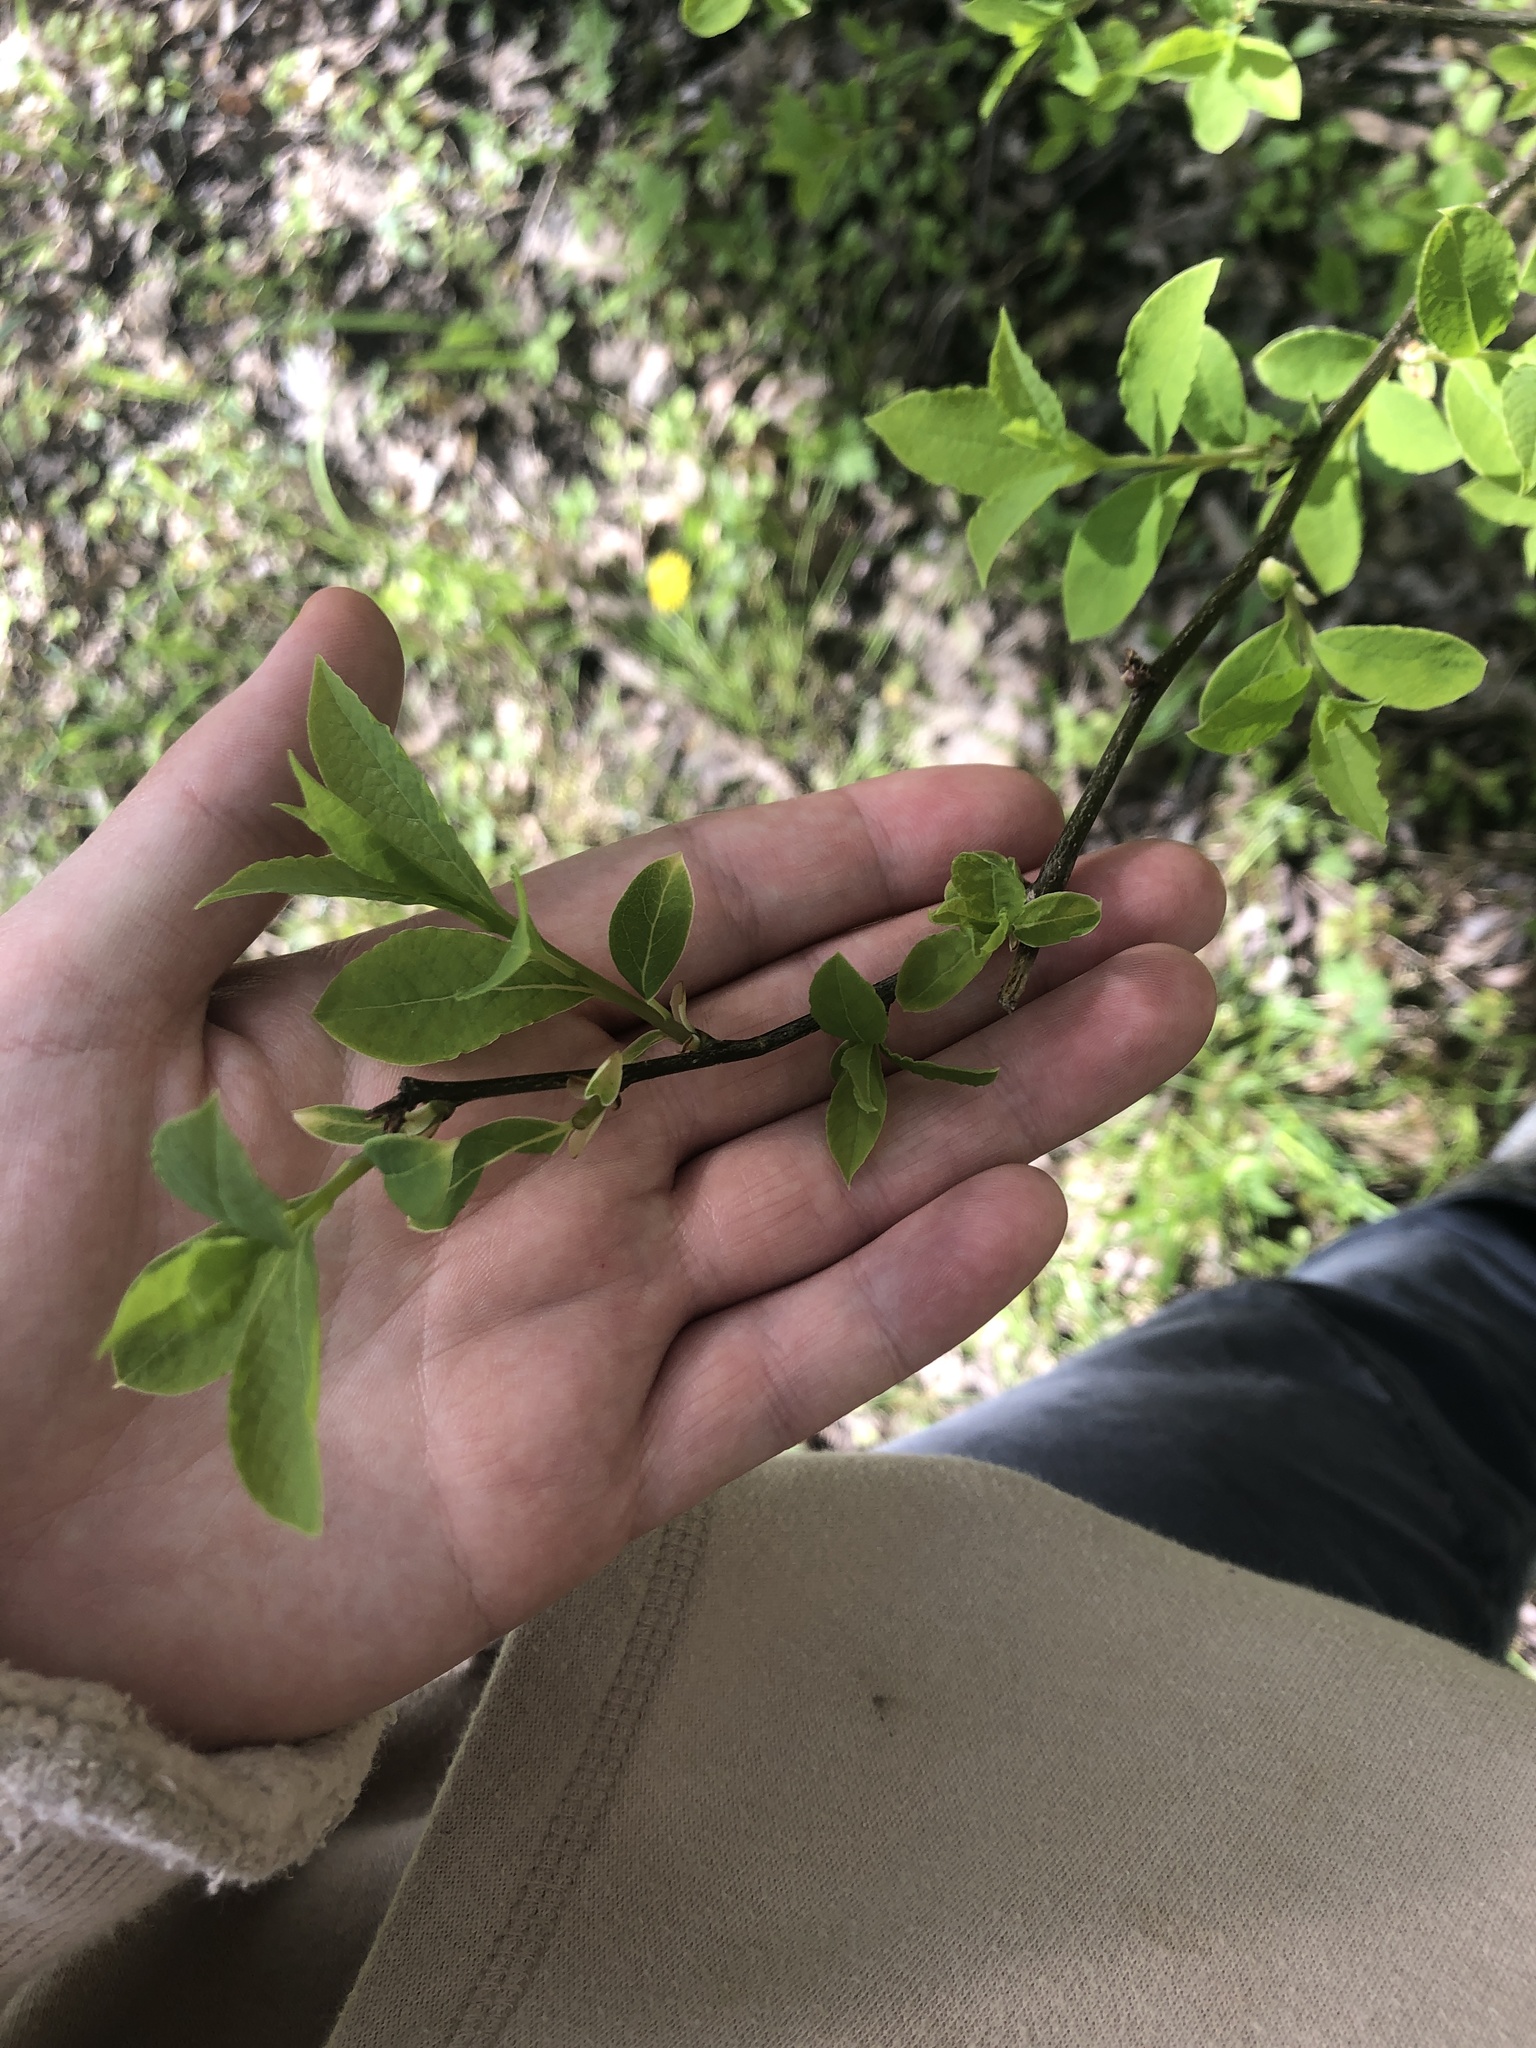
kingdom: Plantae
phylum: Tracheophyta
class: Magnoliopsida
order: Laurales
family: Lauraceae
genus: Lindera
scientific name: Lindera benzoin
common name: Spicebush
